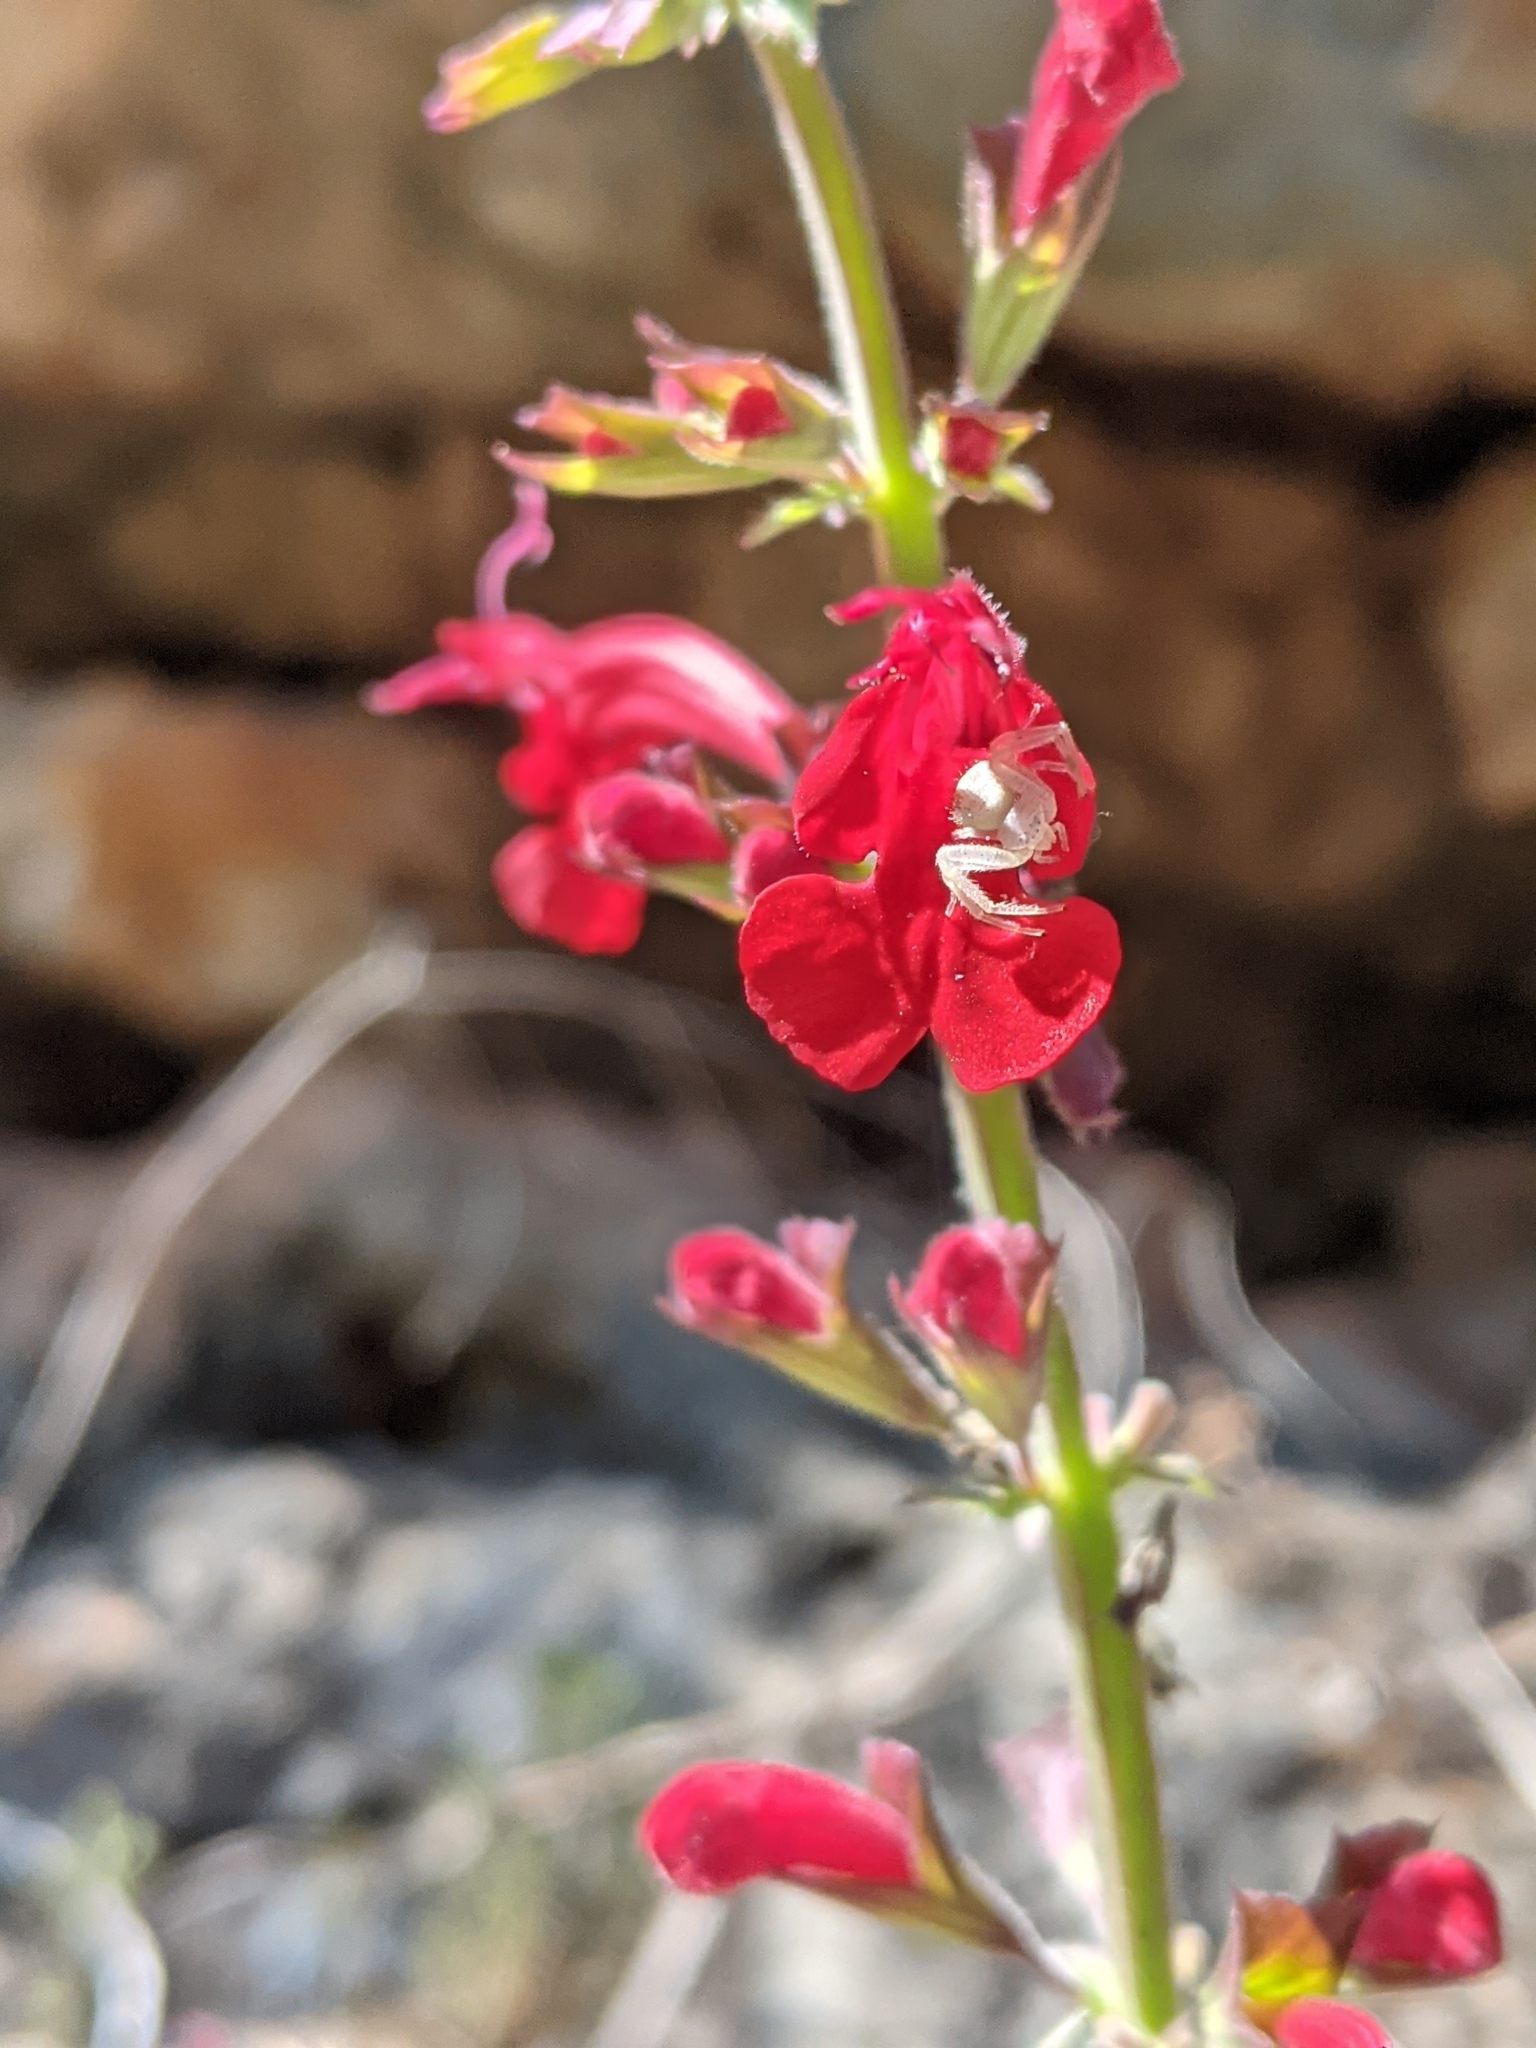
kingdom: Plantae
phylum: Tracheophyta
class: Magnoliopsida
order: Lamiales
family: Lamiaceae
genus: Salvia
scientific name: Salvia roemeriana
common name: Cedar sage
